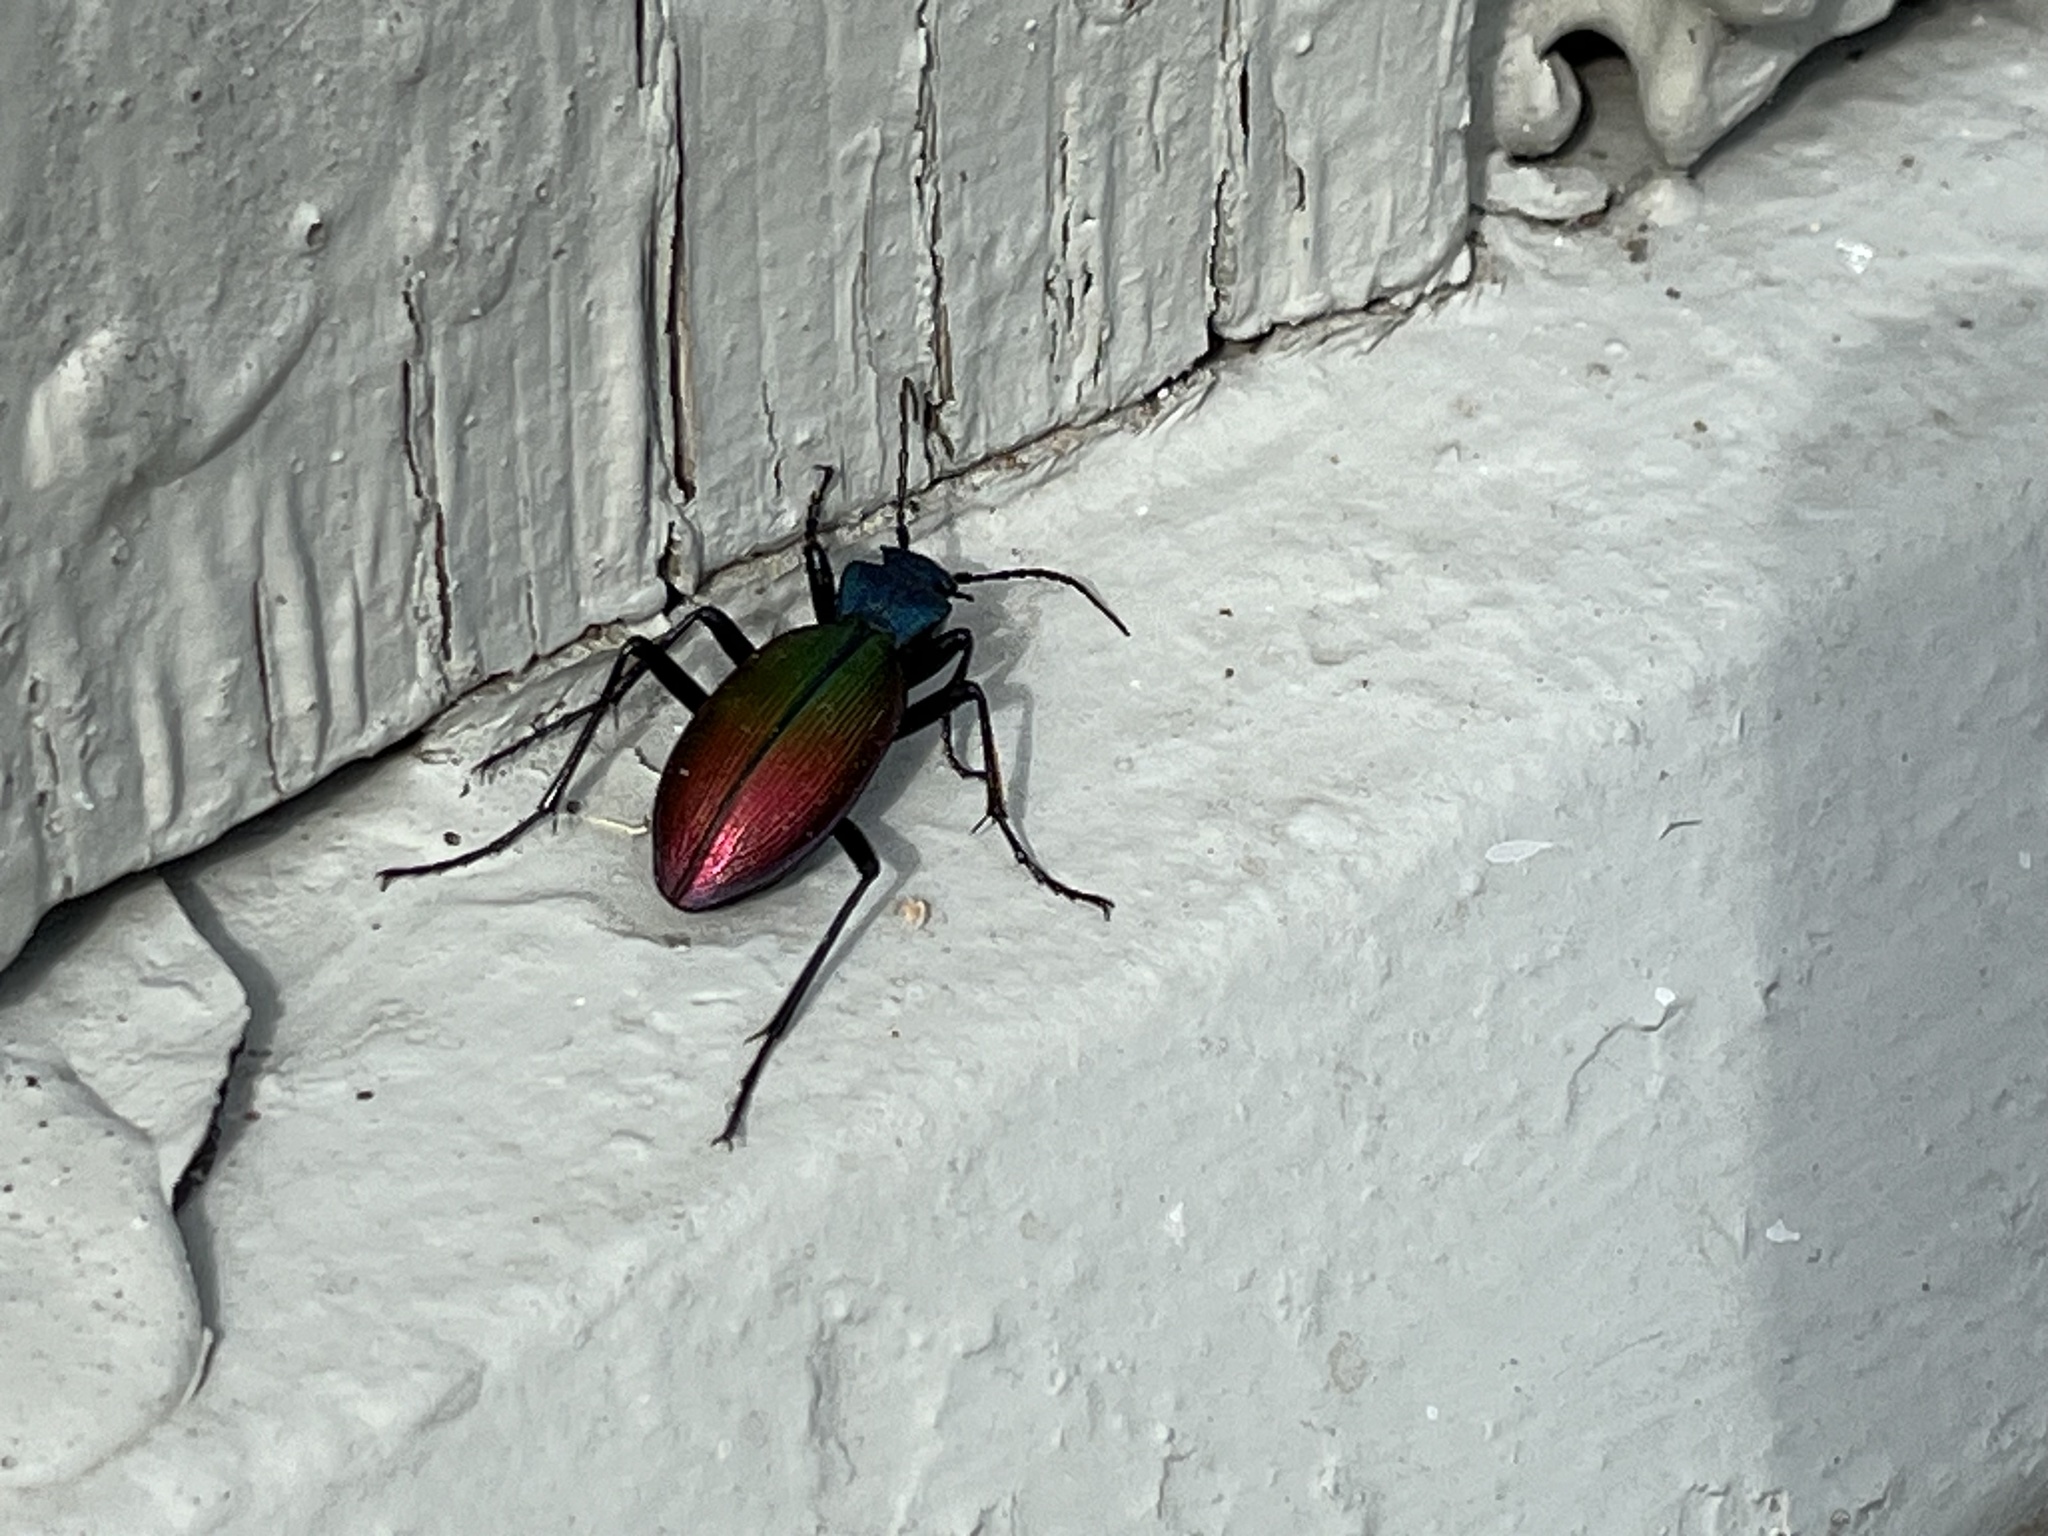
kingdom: Animalia
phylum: Arthropoda
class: Insecta
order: Coleoptera
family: Carabidae
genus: Ceroglossus
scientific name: Ceroglossus chilensis
